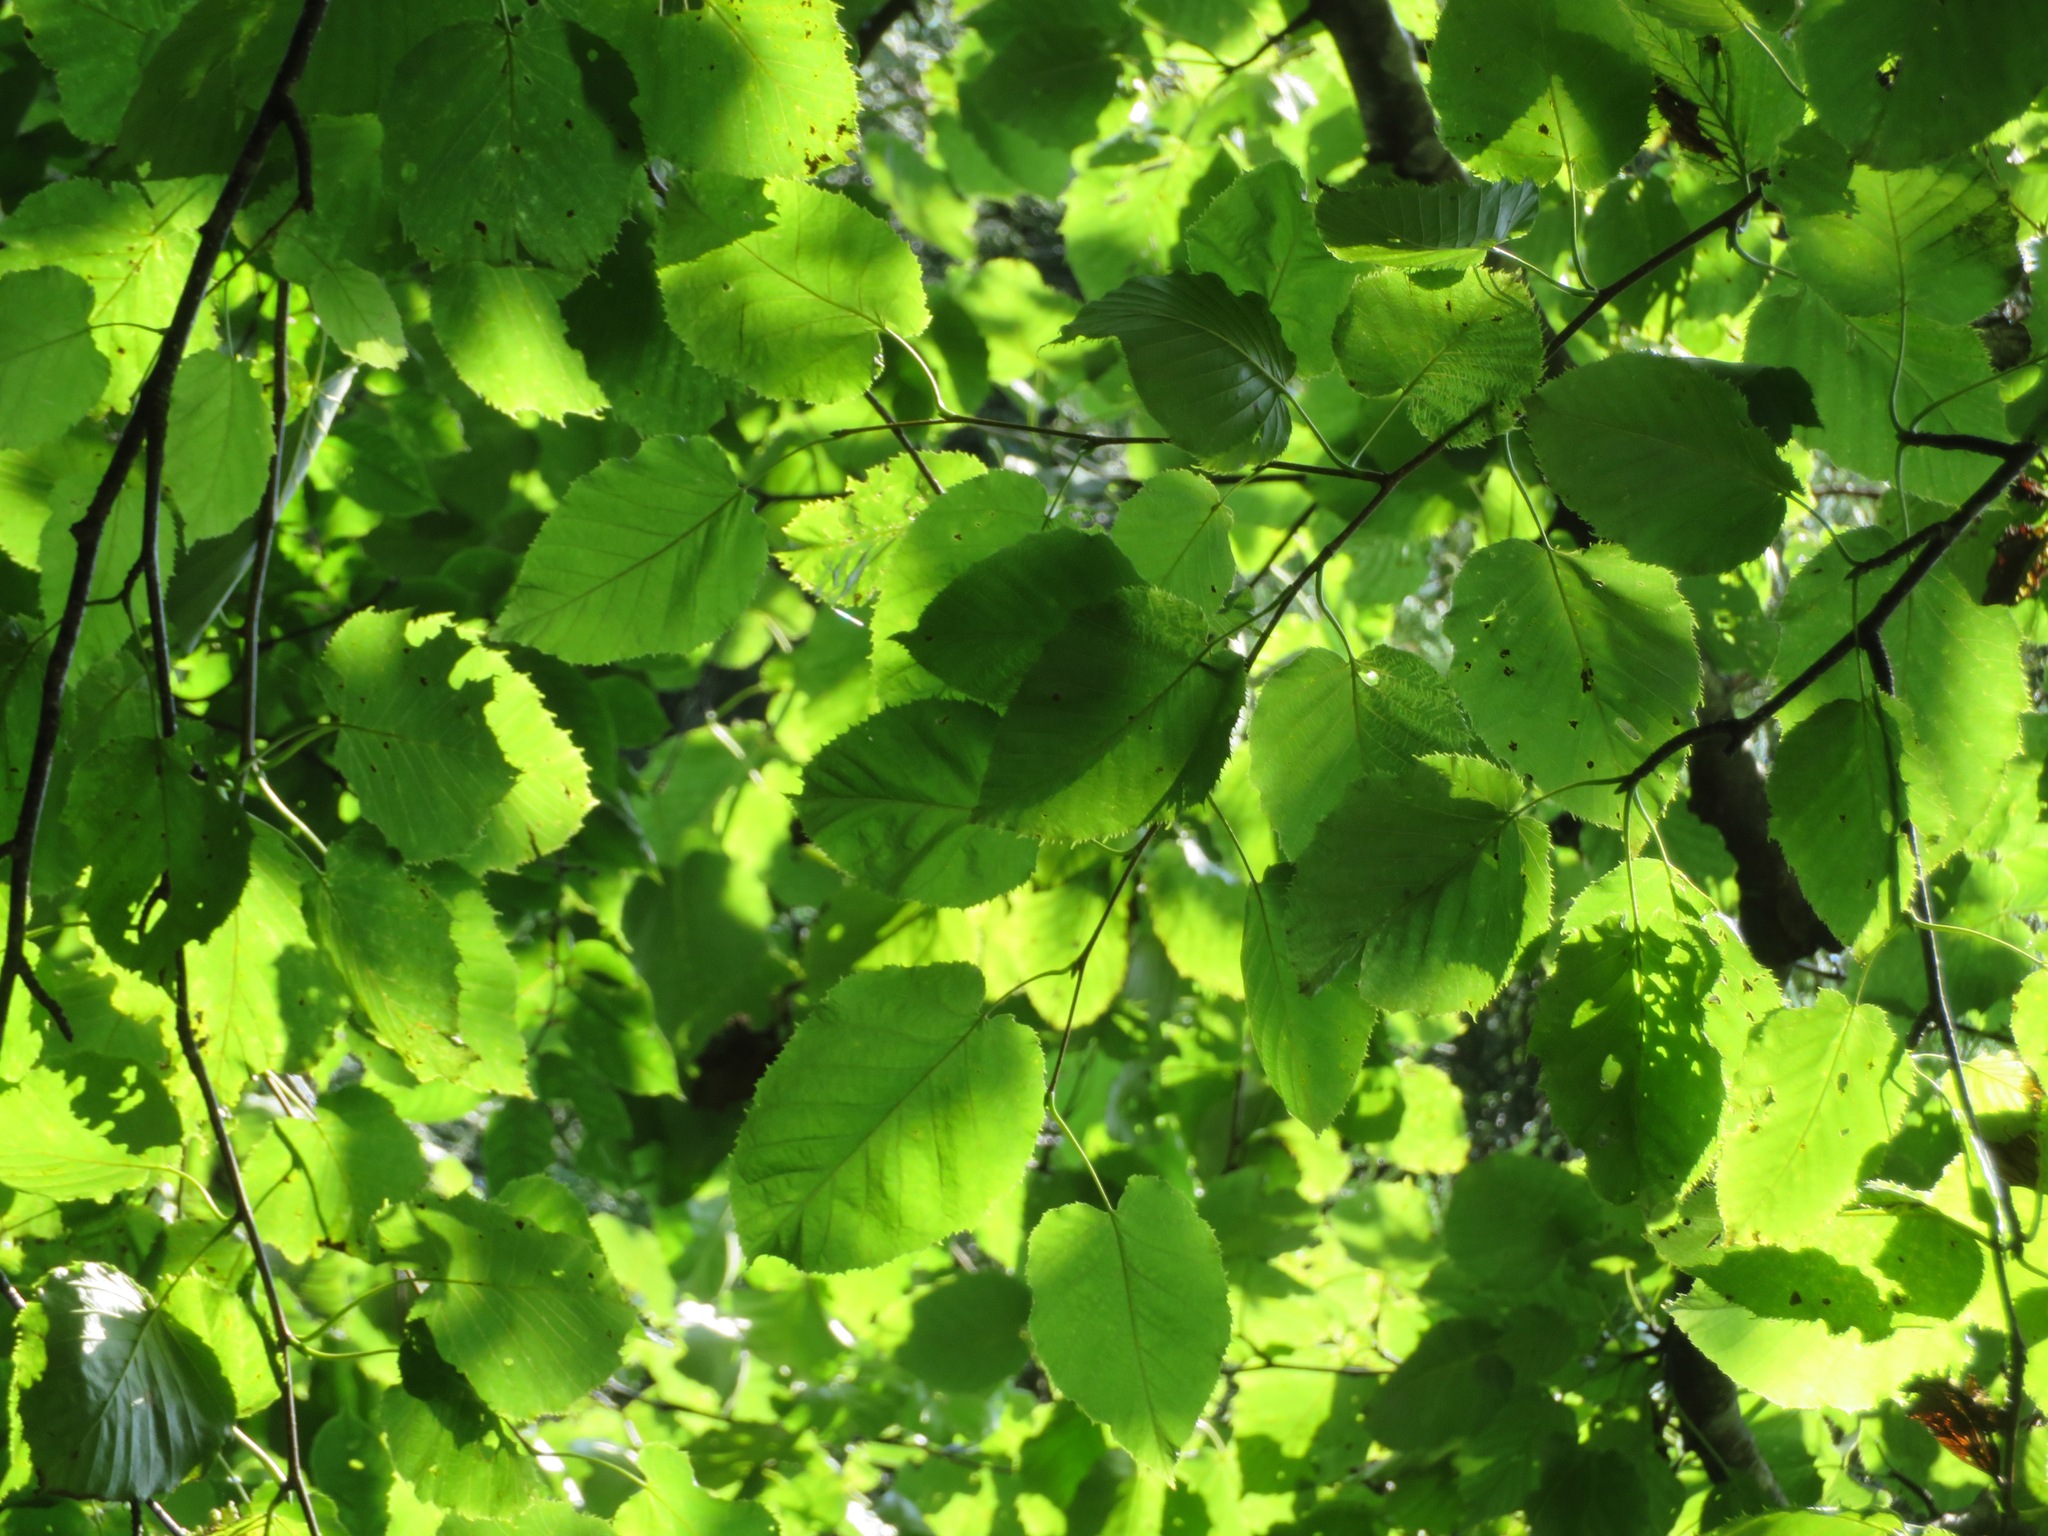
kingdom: Plantae
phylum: Tracheophyta
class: Magnoliopsida
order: Fagales
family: Betulaceae
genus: Betula
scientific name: Betula maximowicziana
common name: Monarch birch
